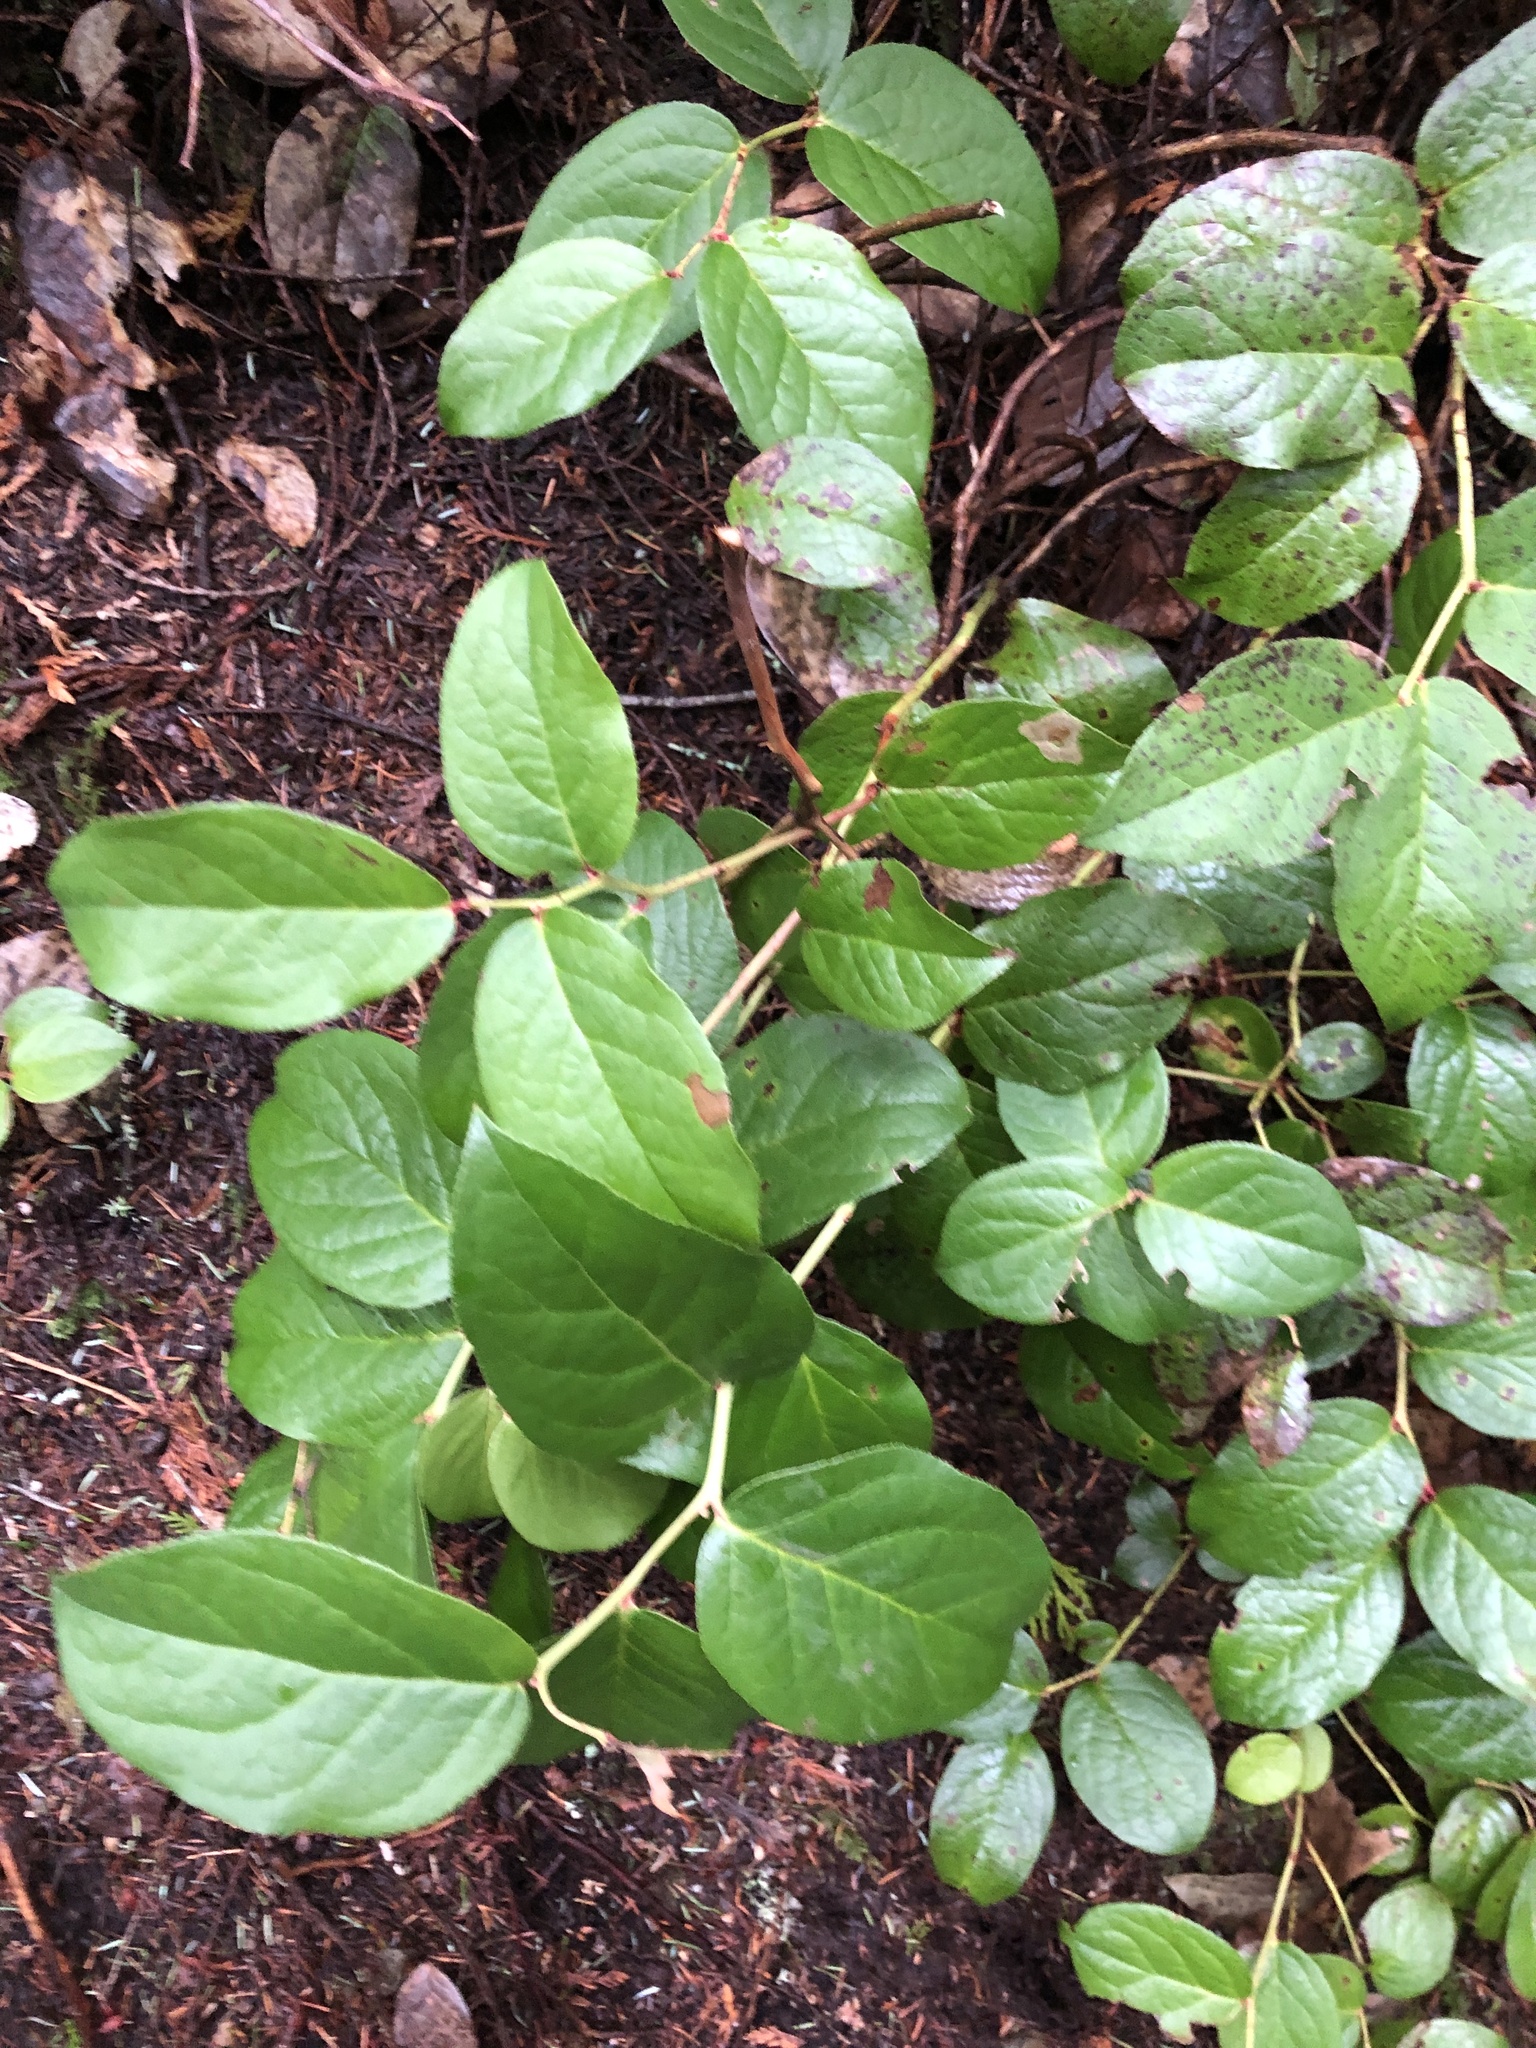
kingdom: Plantae
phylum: Tracheophyta
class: Magnoliopsida
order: Ericales
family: Ericaceae
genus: Gaultheria
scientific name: Gaultheria shallon
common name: Shallon
